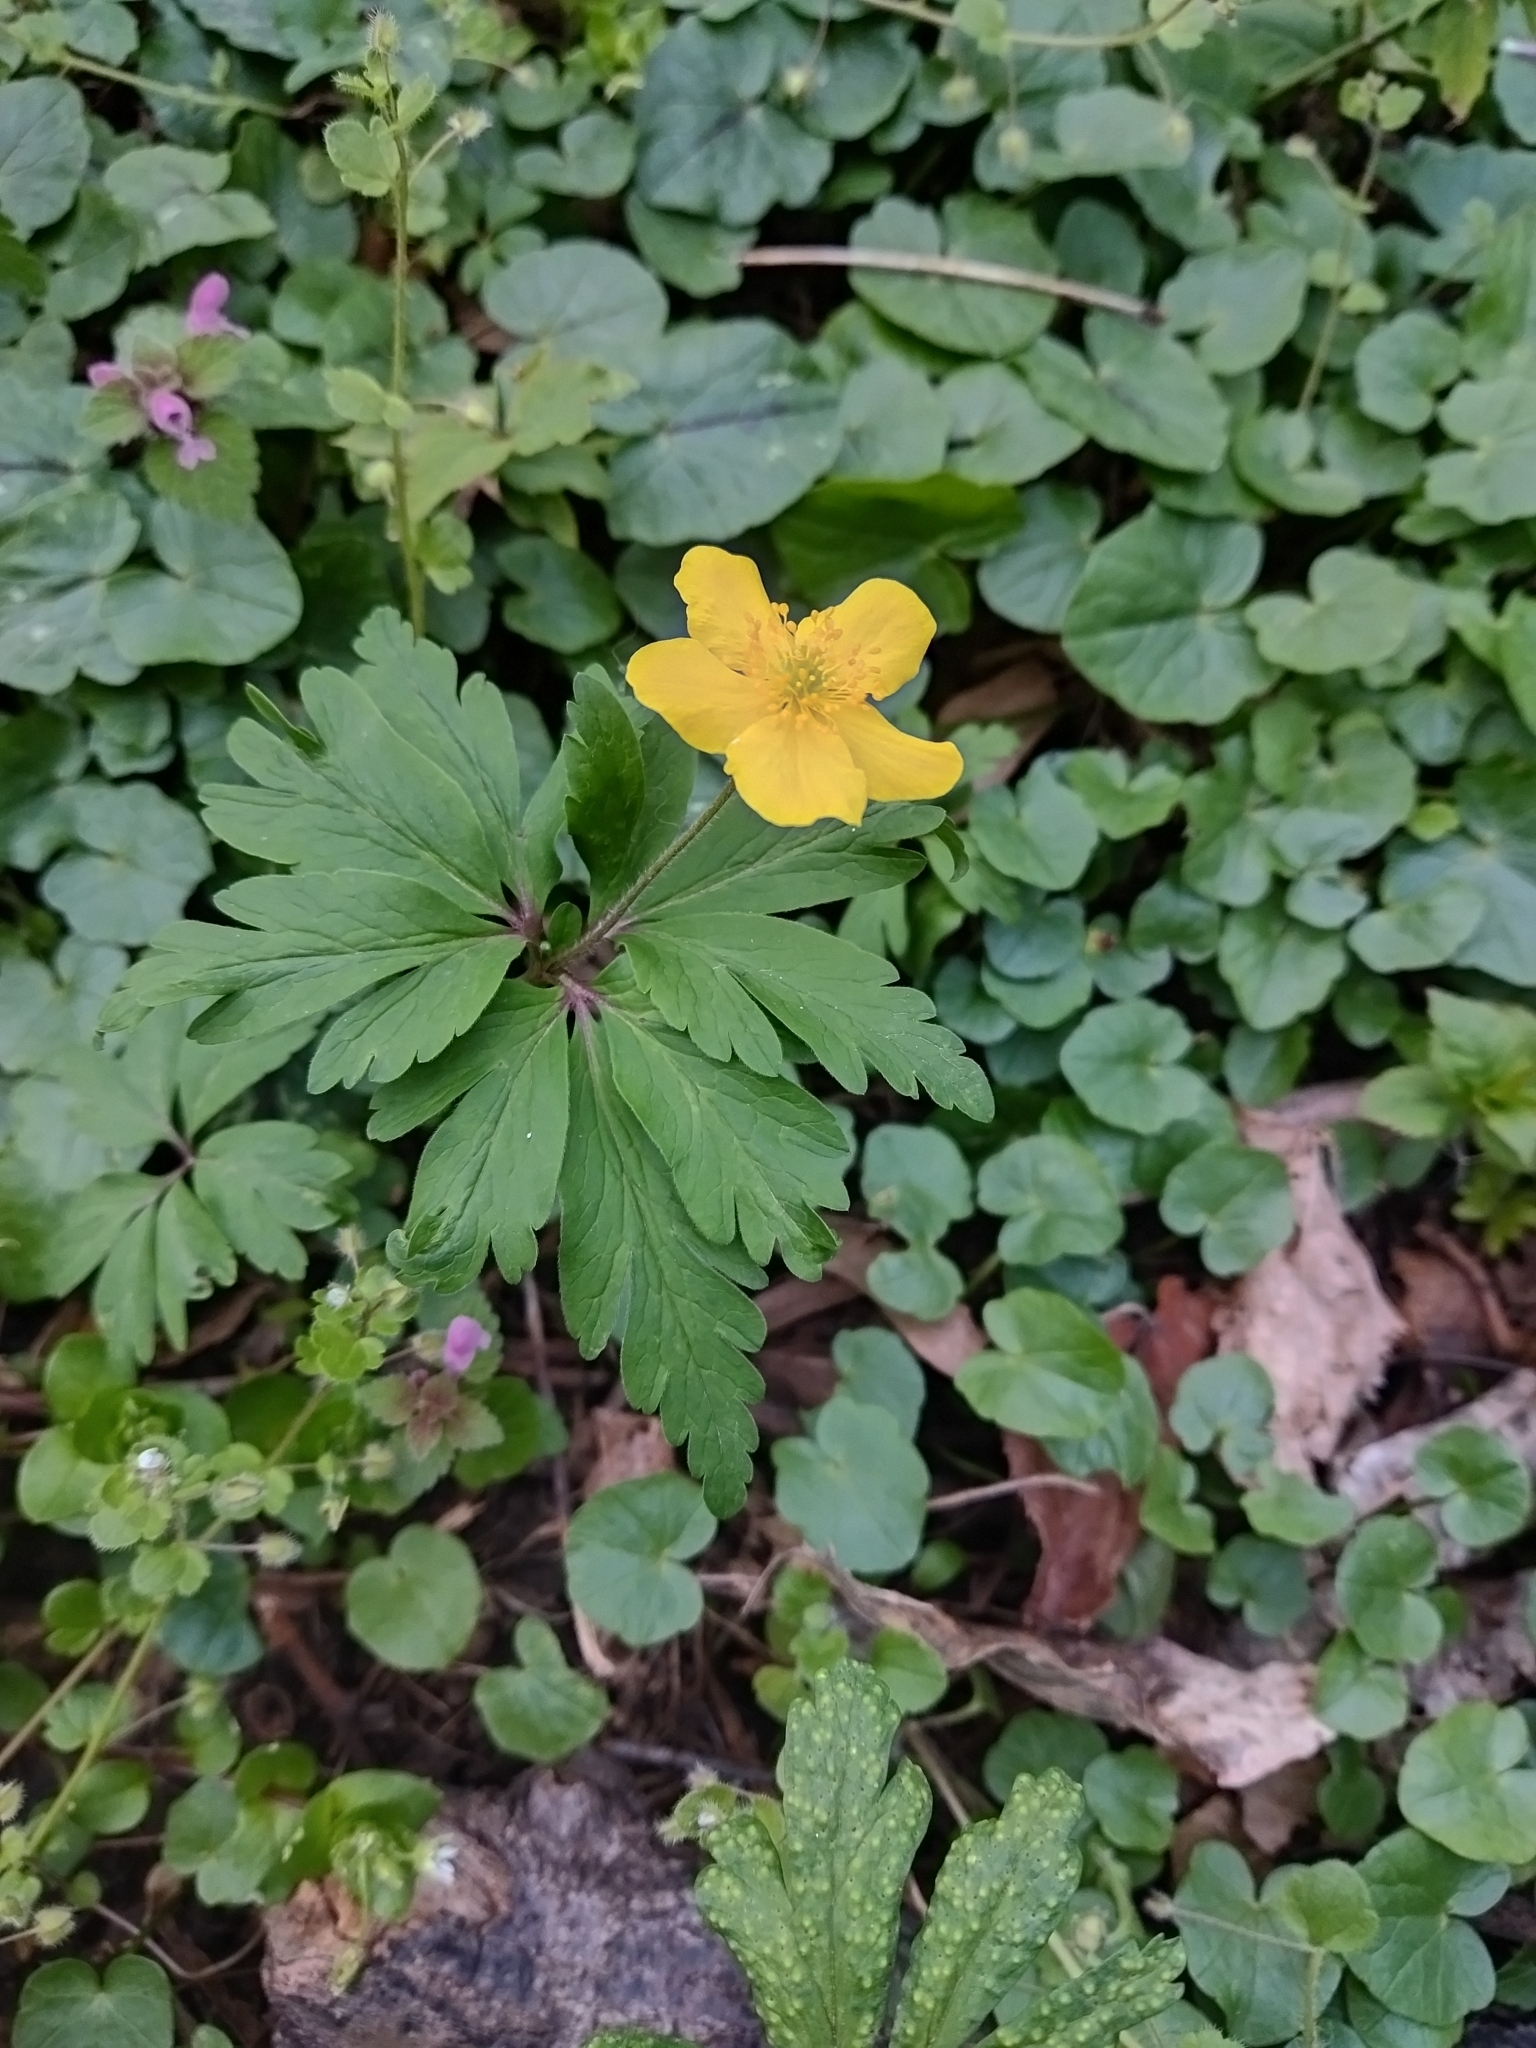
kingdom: Plantae
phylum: Tracheophyta
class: Magnoliopsida
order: Ranunculales
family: Ranunculaceae
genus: Anemone
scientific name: Anemone ranunculoides
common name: Yellow anemone
